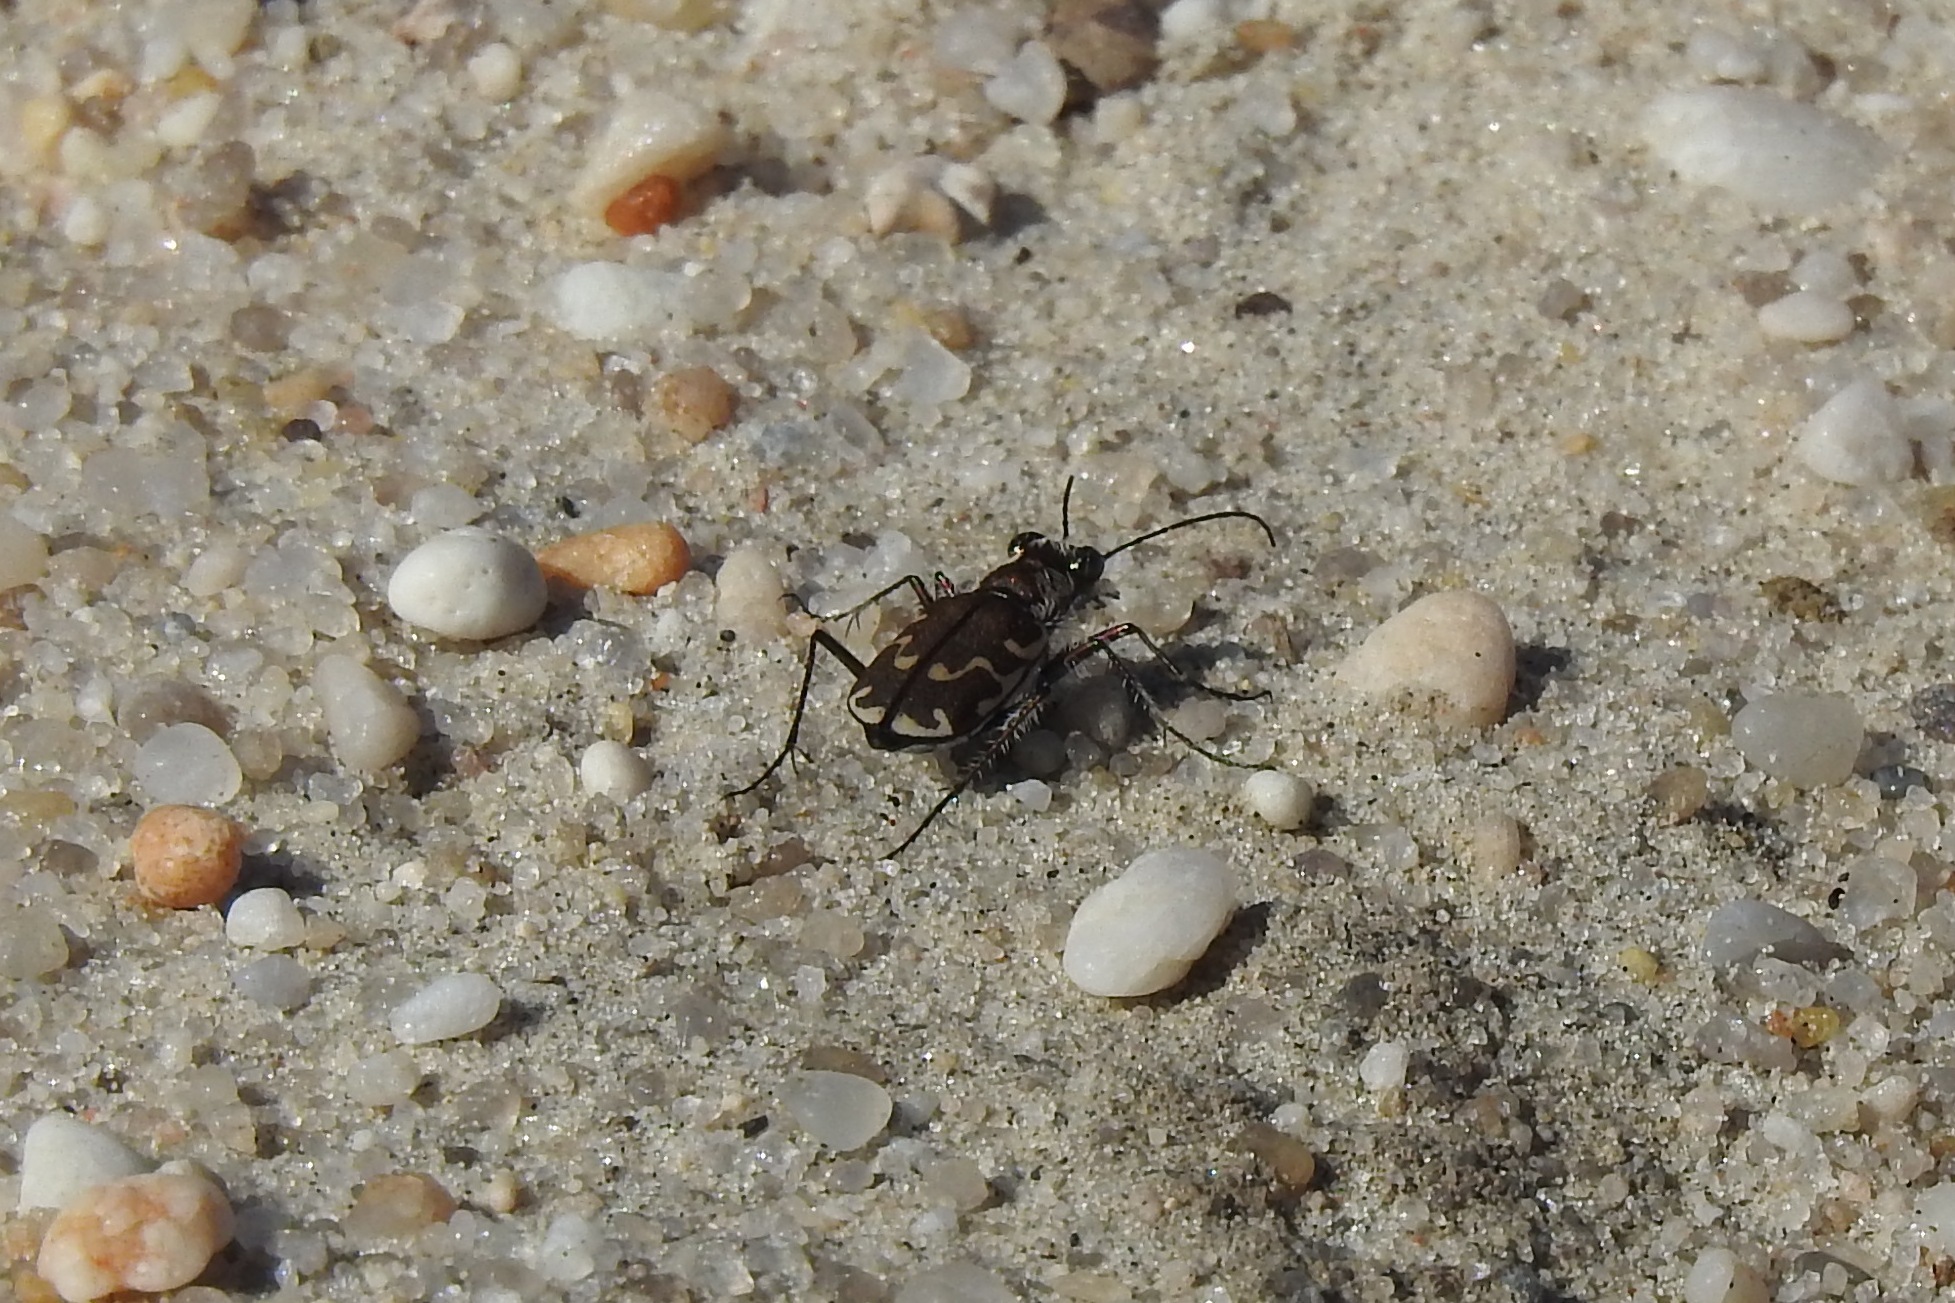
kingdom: Animalia
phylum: Arthropoda
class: Insecta
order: Coleoptera
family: Carabidae
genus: Cicindela
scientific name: Cicindela repanda
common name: Bronzed tiger beetle
